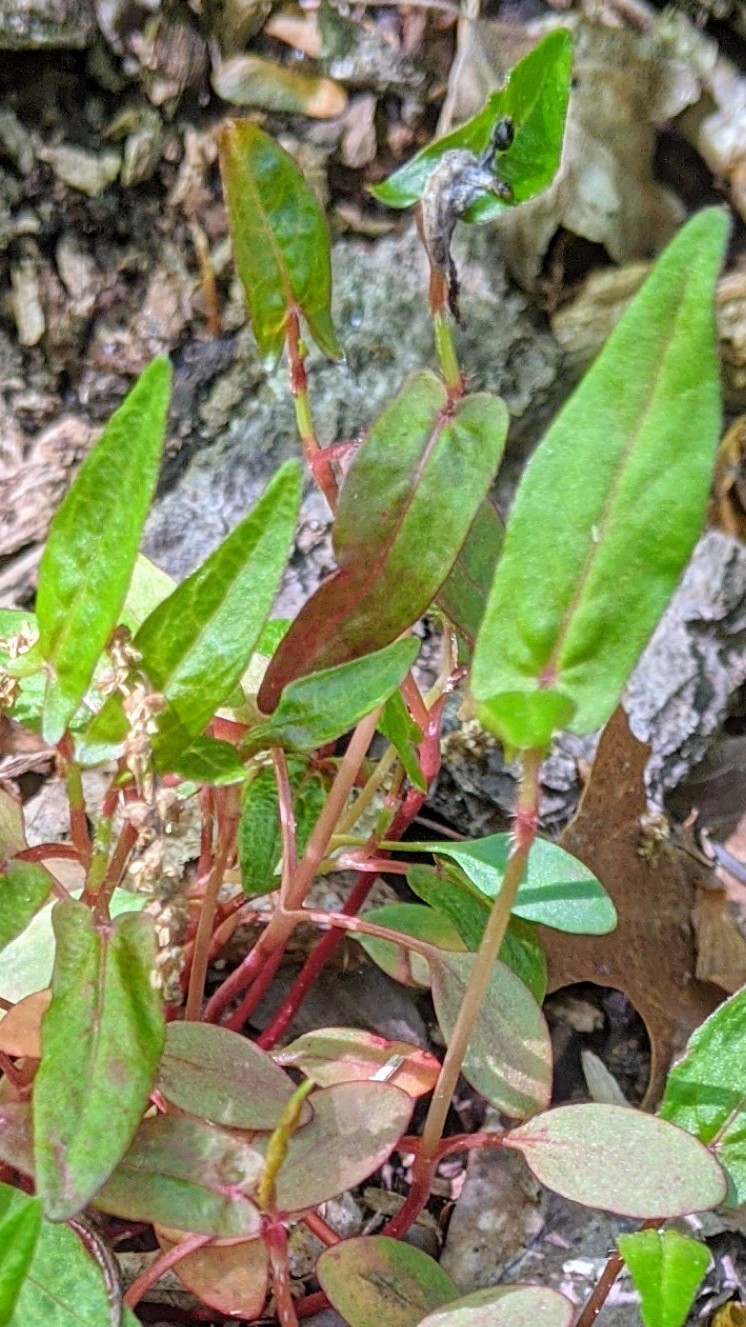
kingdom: Plantae
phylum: Tracheophyta
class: Magnoliopsida
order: Caryophyllales
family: Polygonaceae
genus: Persicaria
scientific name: Persicaria sagittata
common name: American tearthumb
